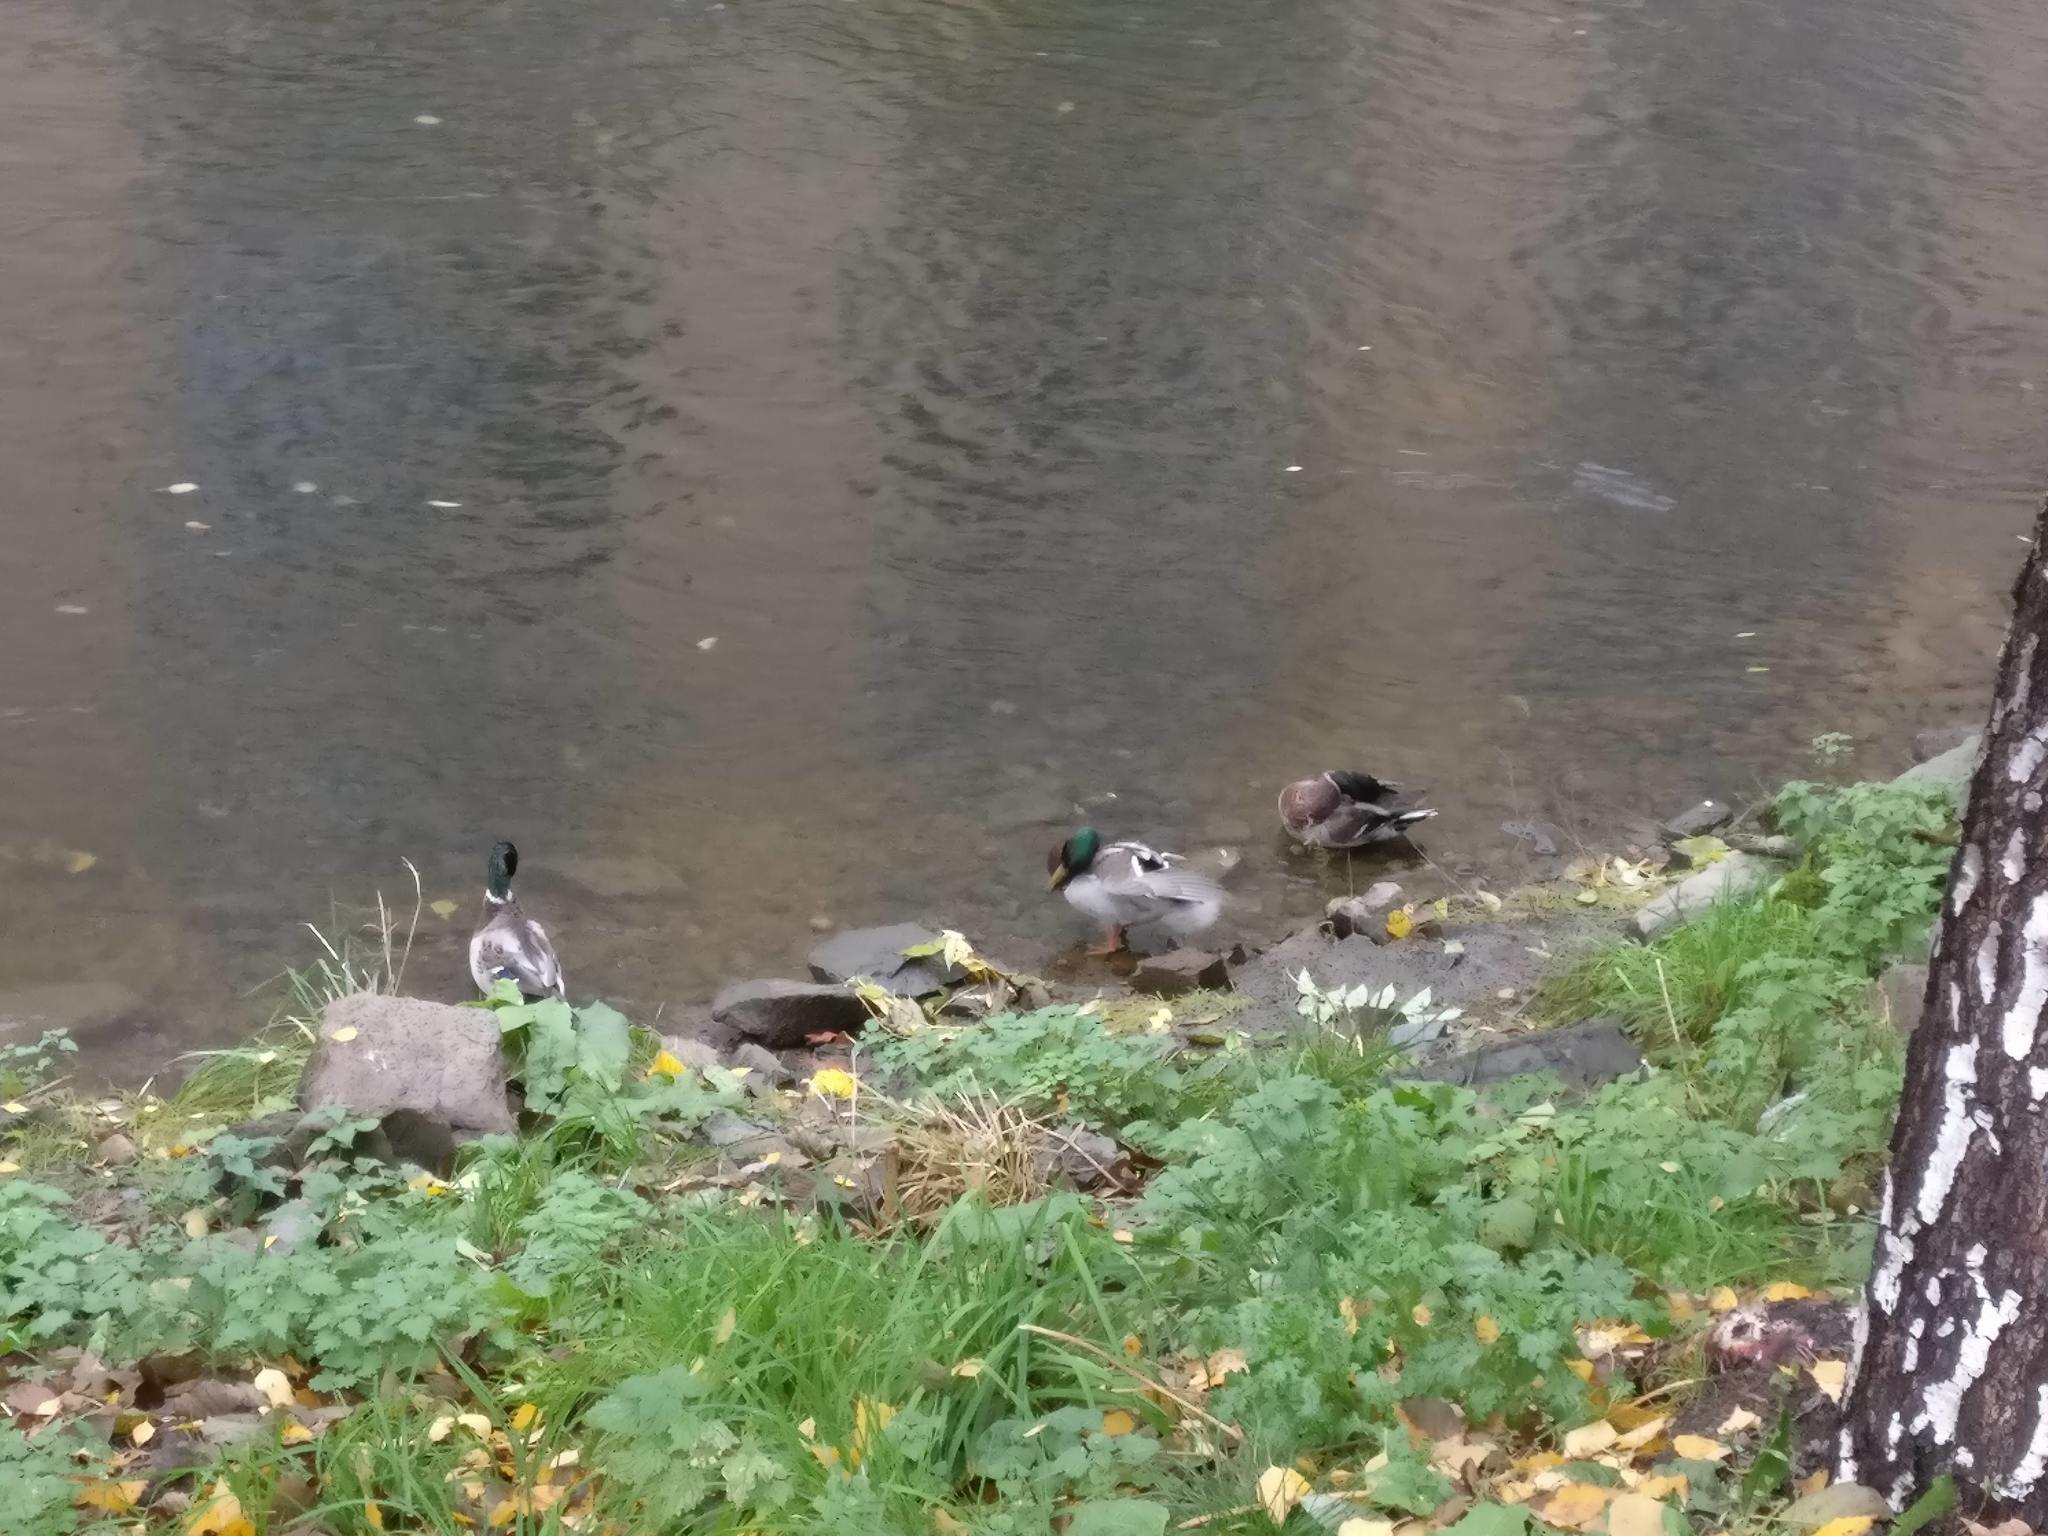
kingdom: Animalia
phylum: Chordata
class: Aves
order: Anseriformes
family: Anatidae
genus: Anas
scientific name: Anas platyrhynchos
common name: Mallard
